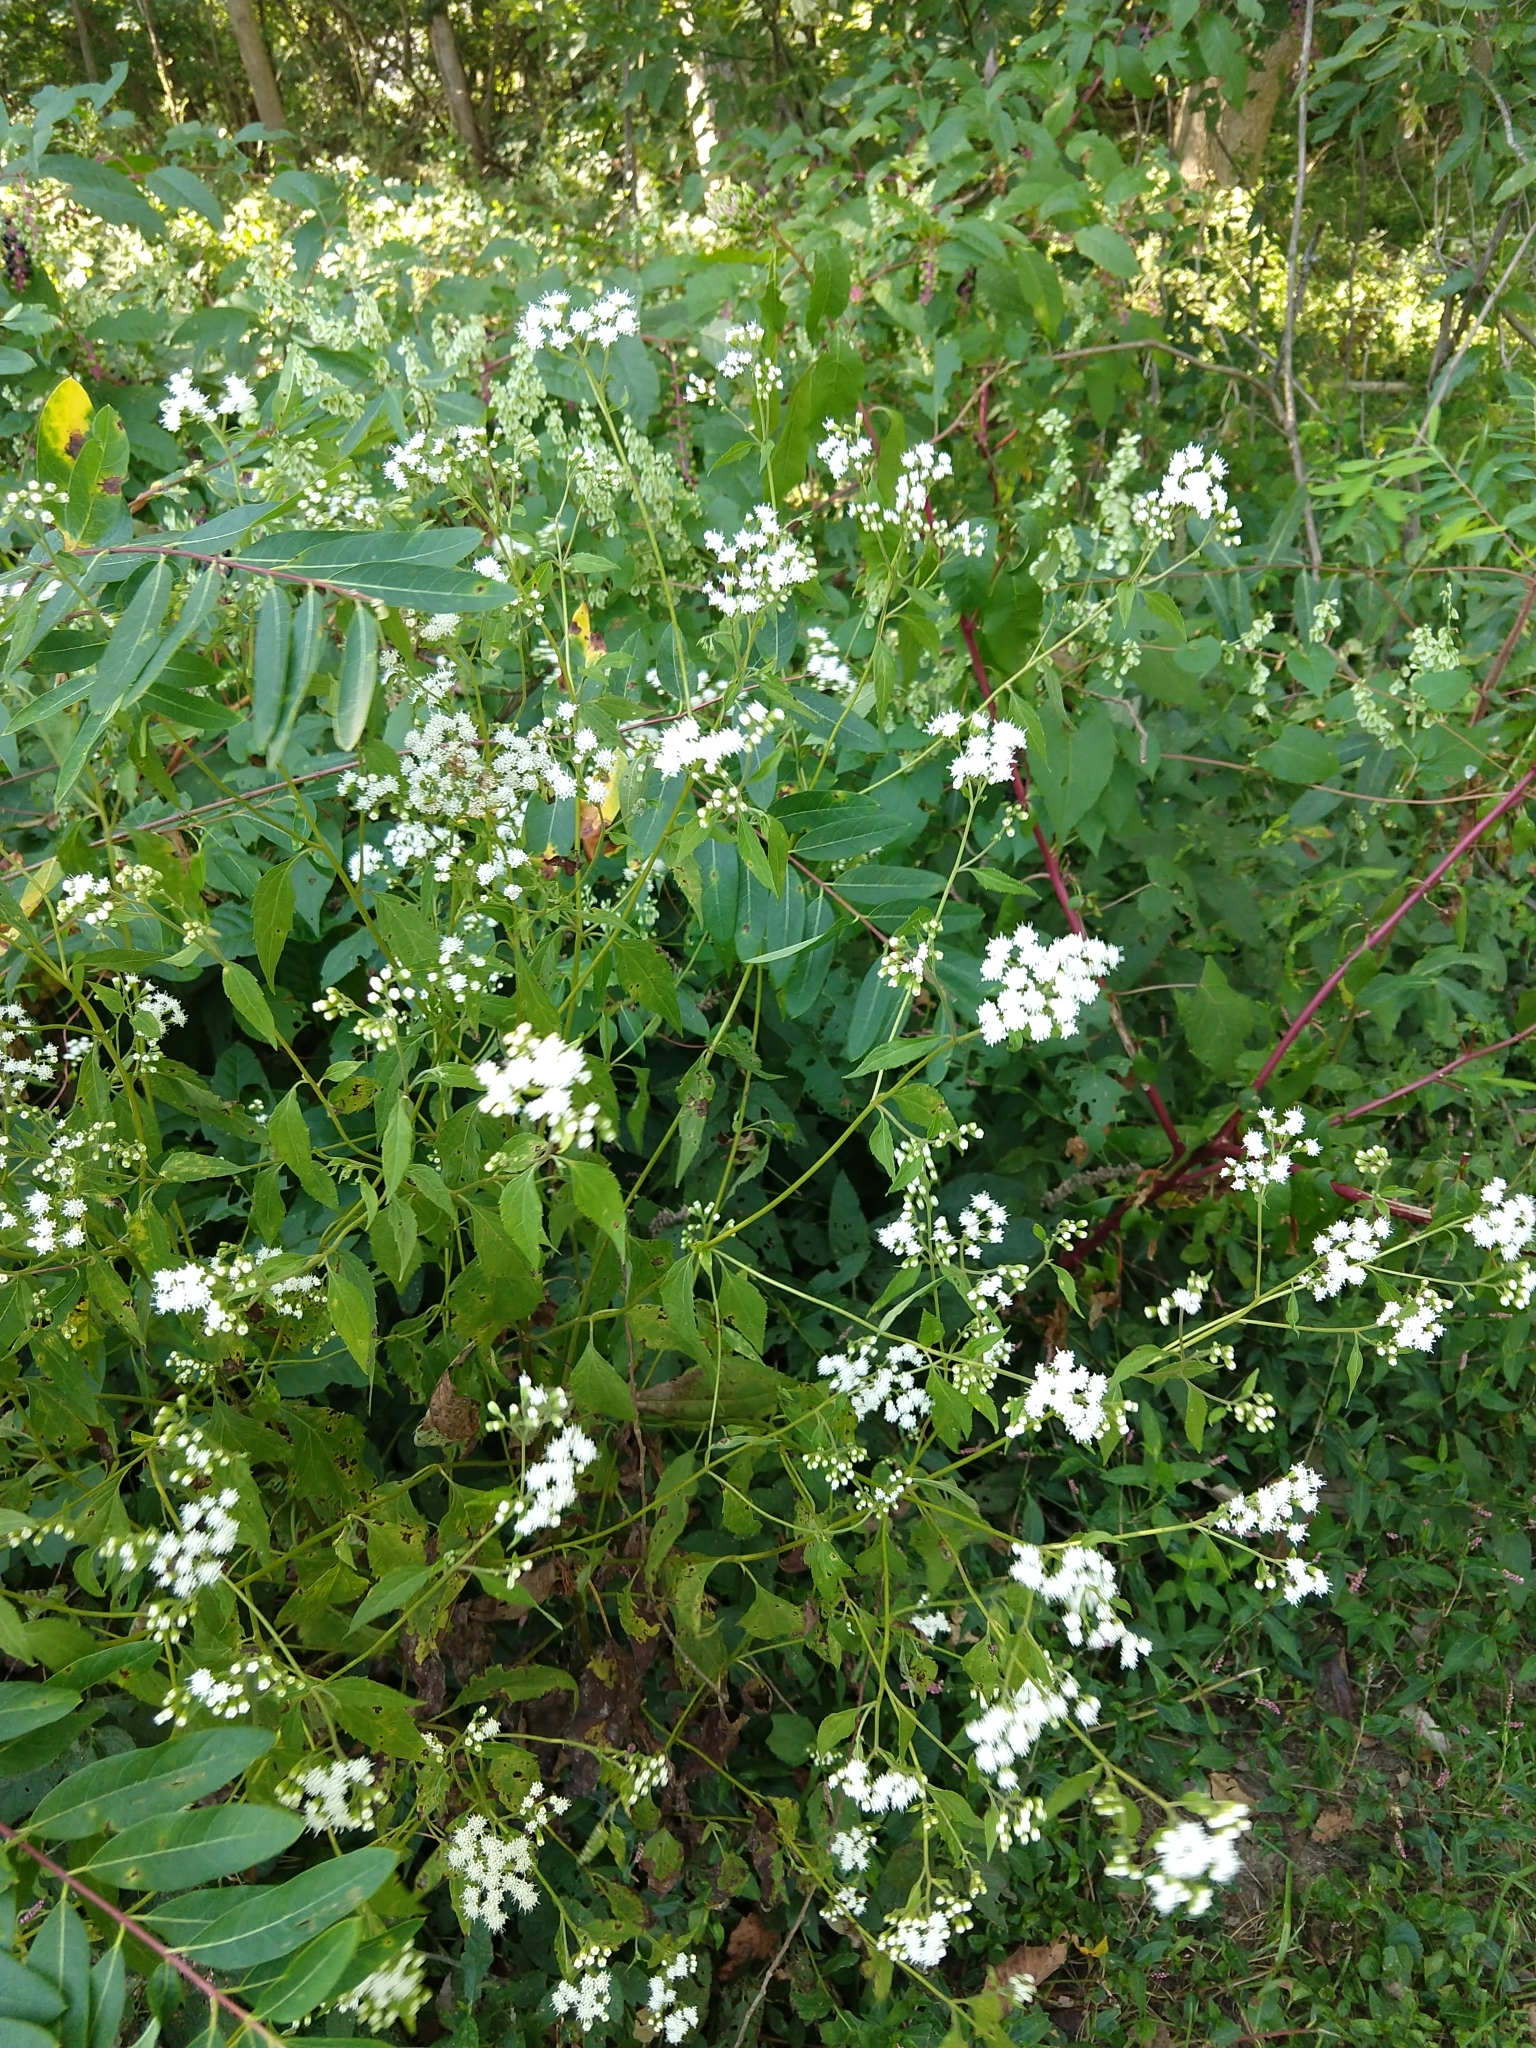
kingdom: Plantae
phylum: Tracheophyta
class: Magnoliopsida
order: Asterales
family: Asteraceae
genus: Ageratina
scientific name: Ageratina altissima
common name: White snakeroot
